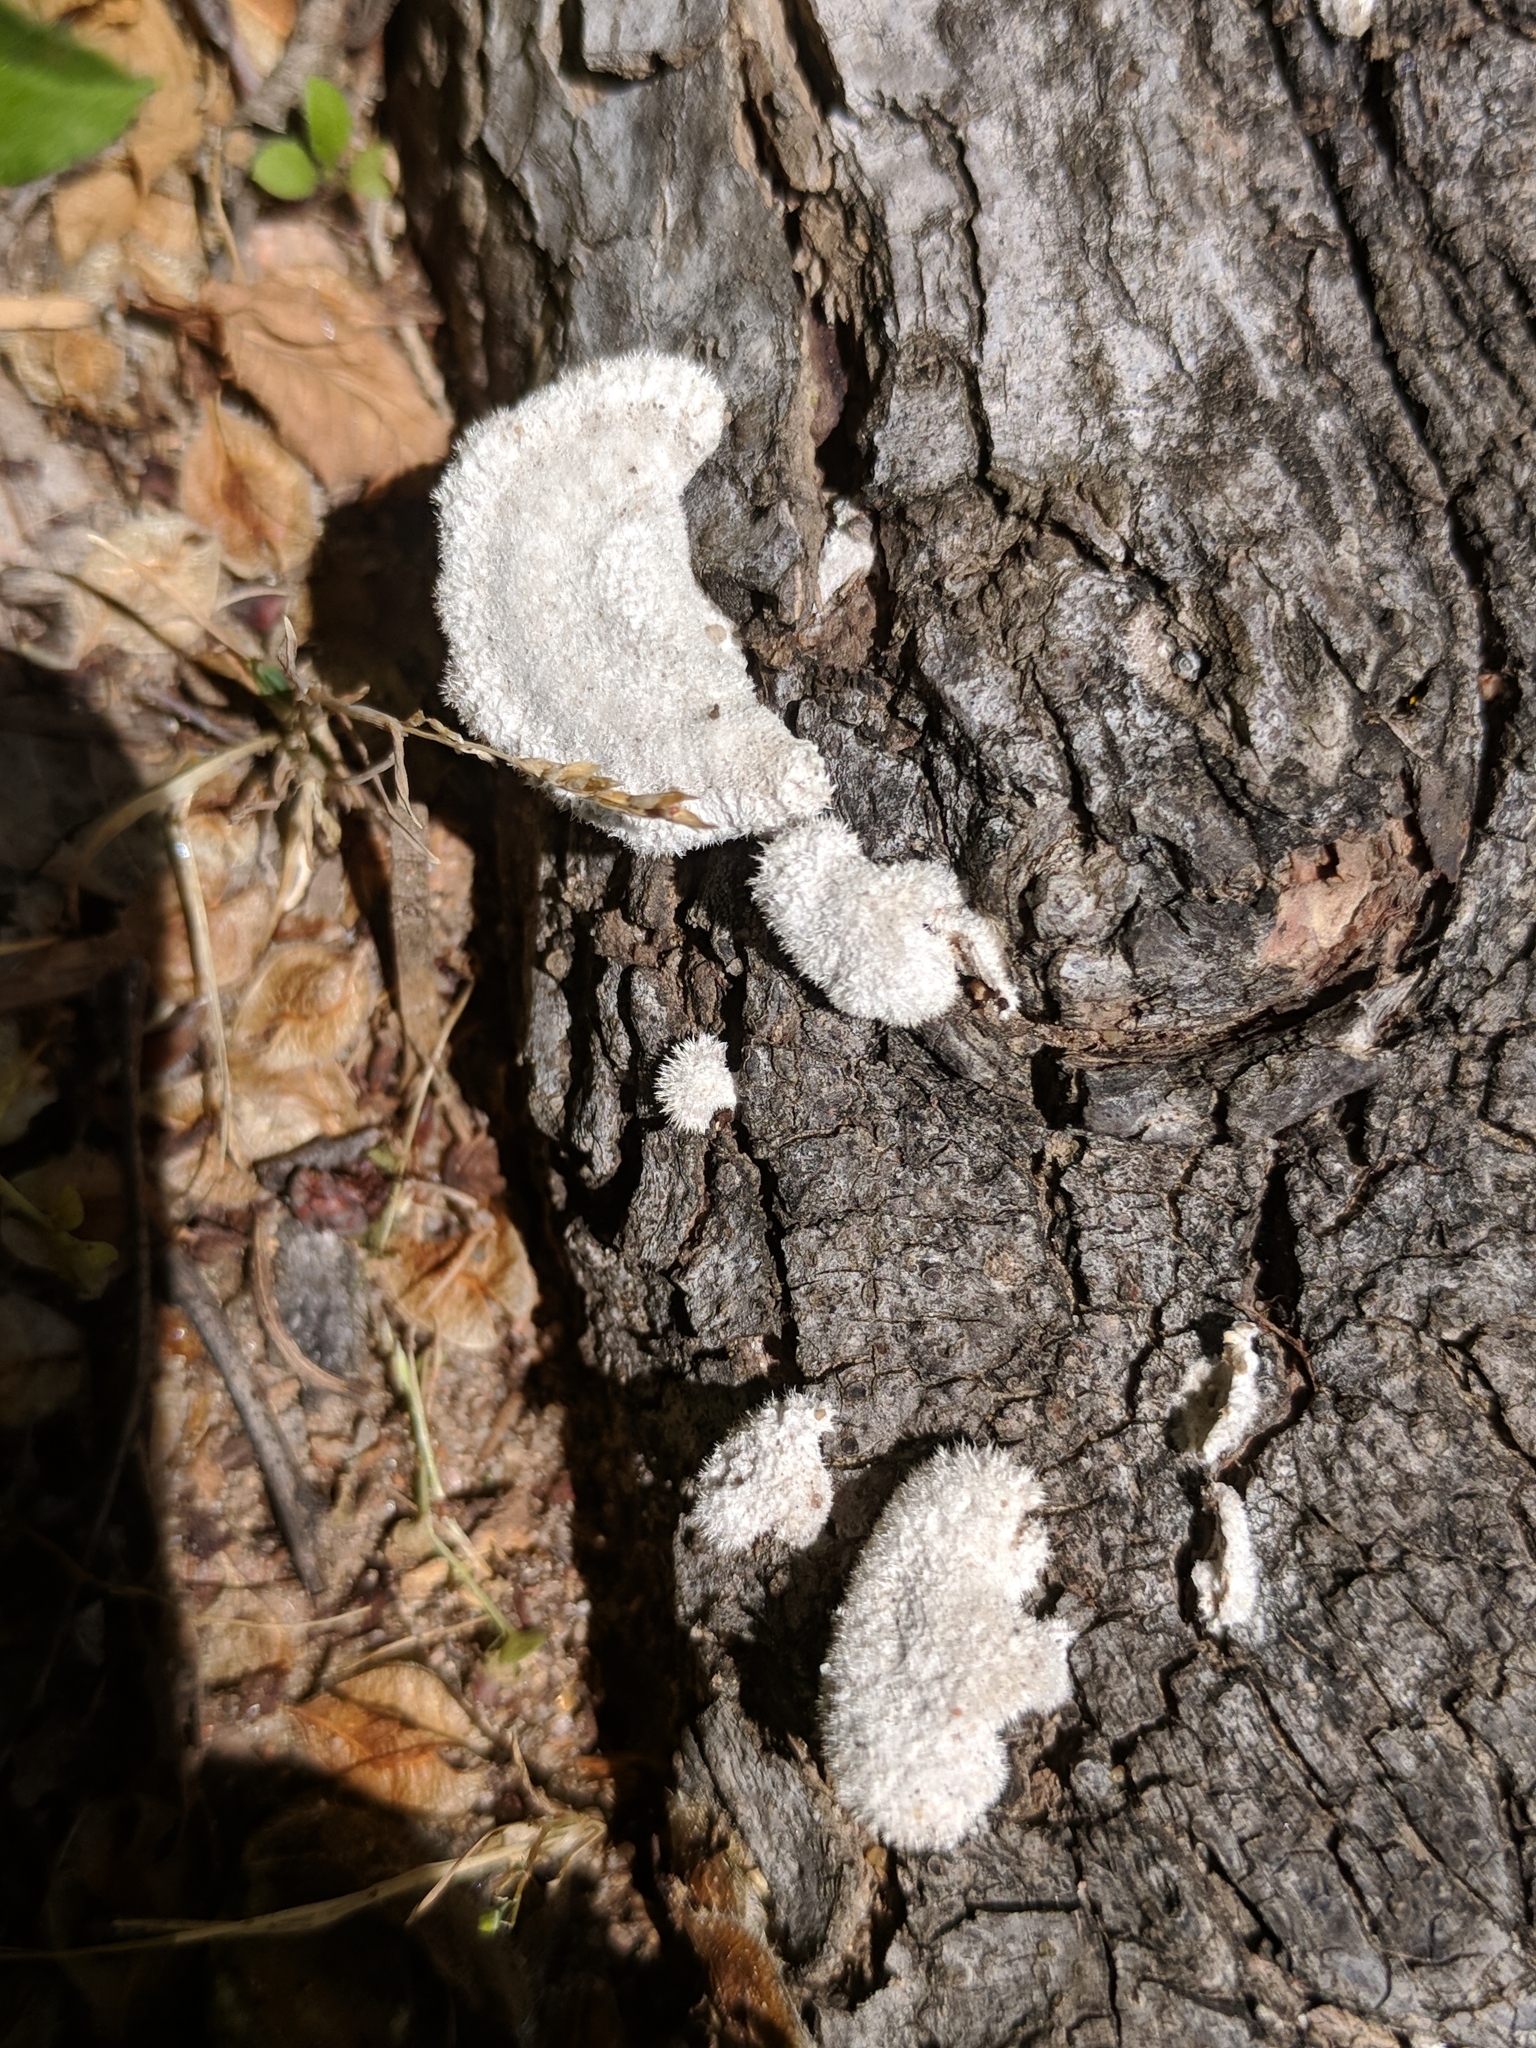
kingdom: Fungi
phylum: Basidiomycota
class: Agaricomycetes
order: Agaricales
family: Schizophyllaceae
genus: Schizophyllum
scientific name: Schizophyllum commune
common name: Common porecrust
